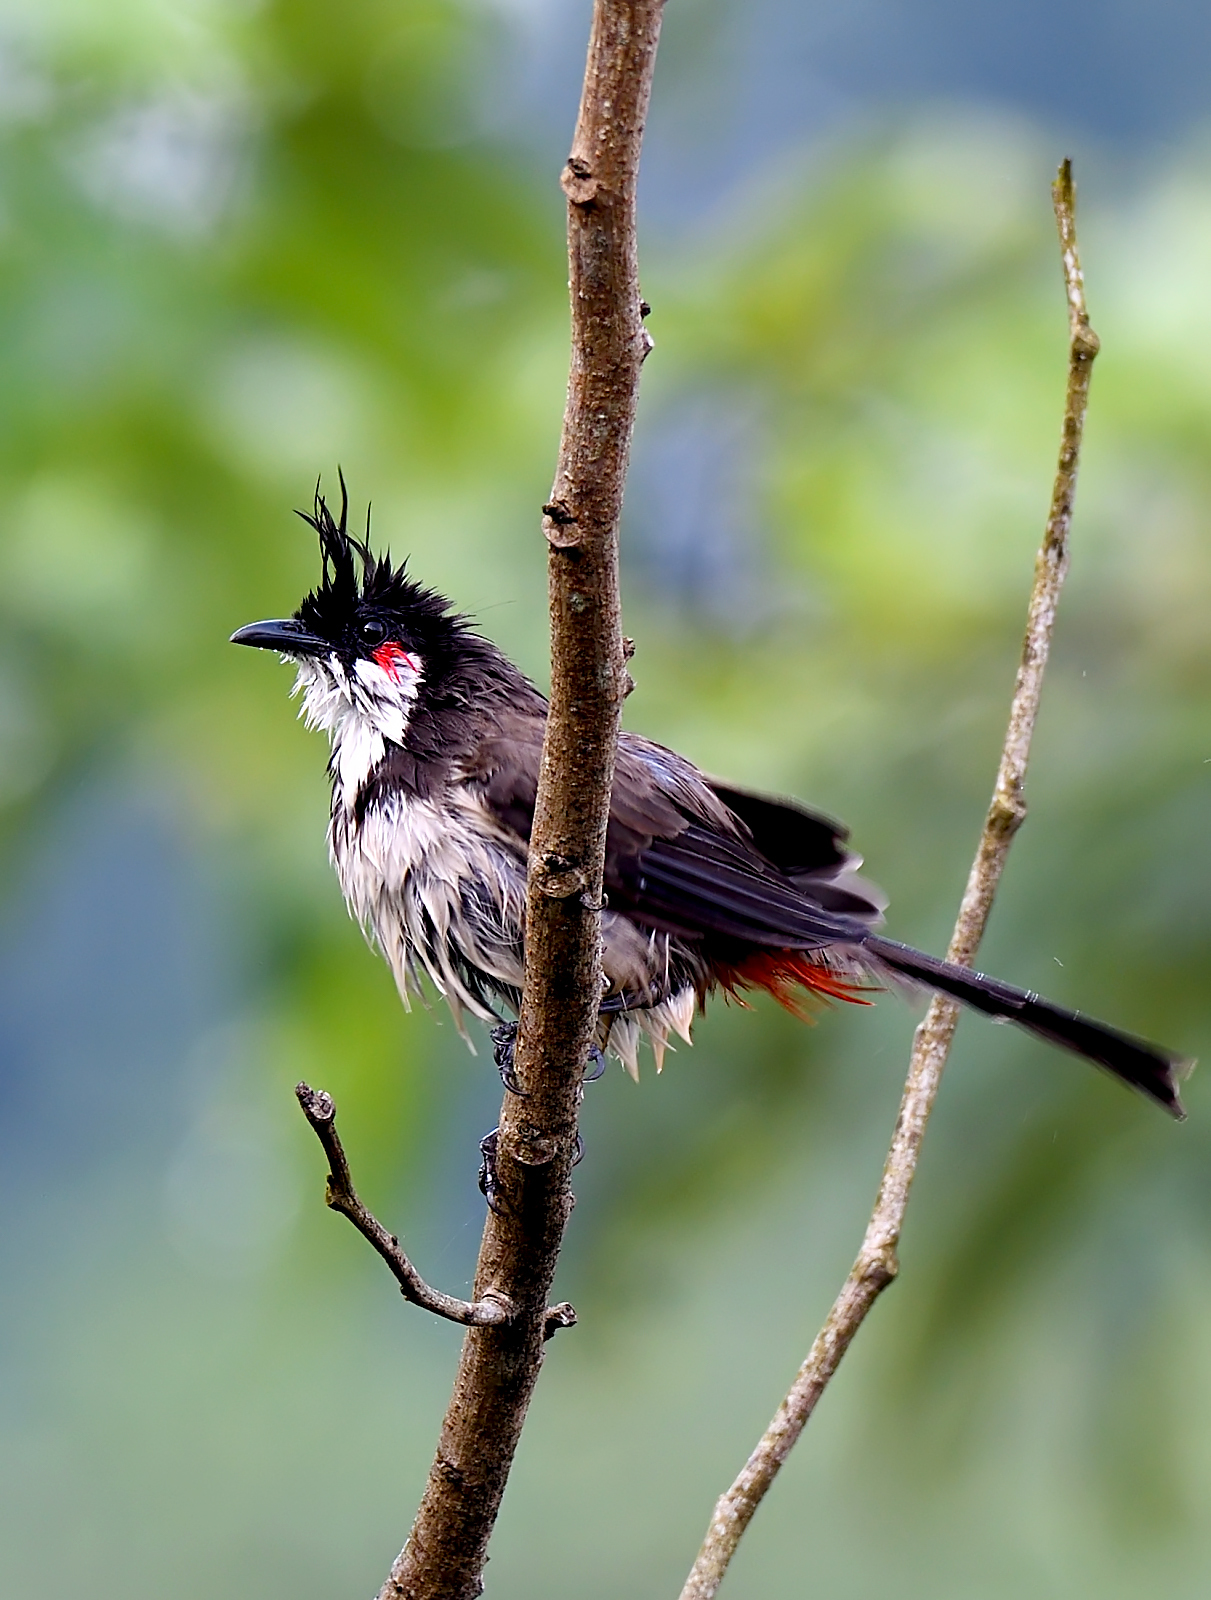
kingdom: Animalia
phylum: Chordata
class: Aves
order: Passeriformes
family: Pycnonotidae
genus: Pycnonotus
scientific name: Pycnonotus jocosus
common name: Red-whiskered bulbul
